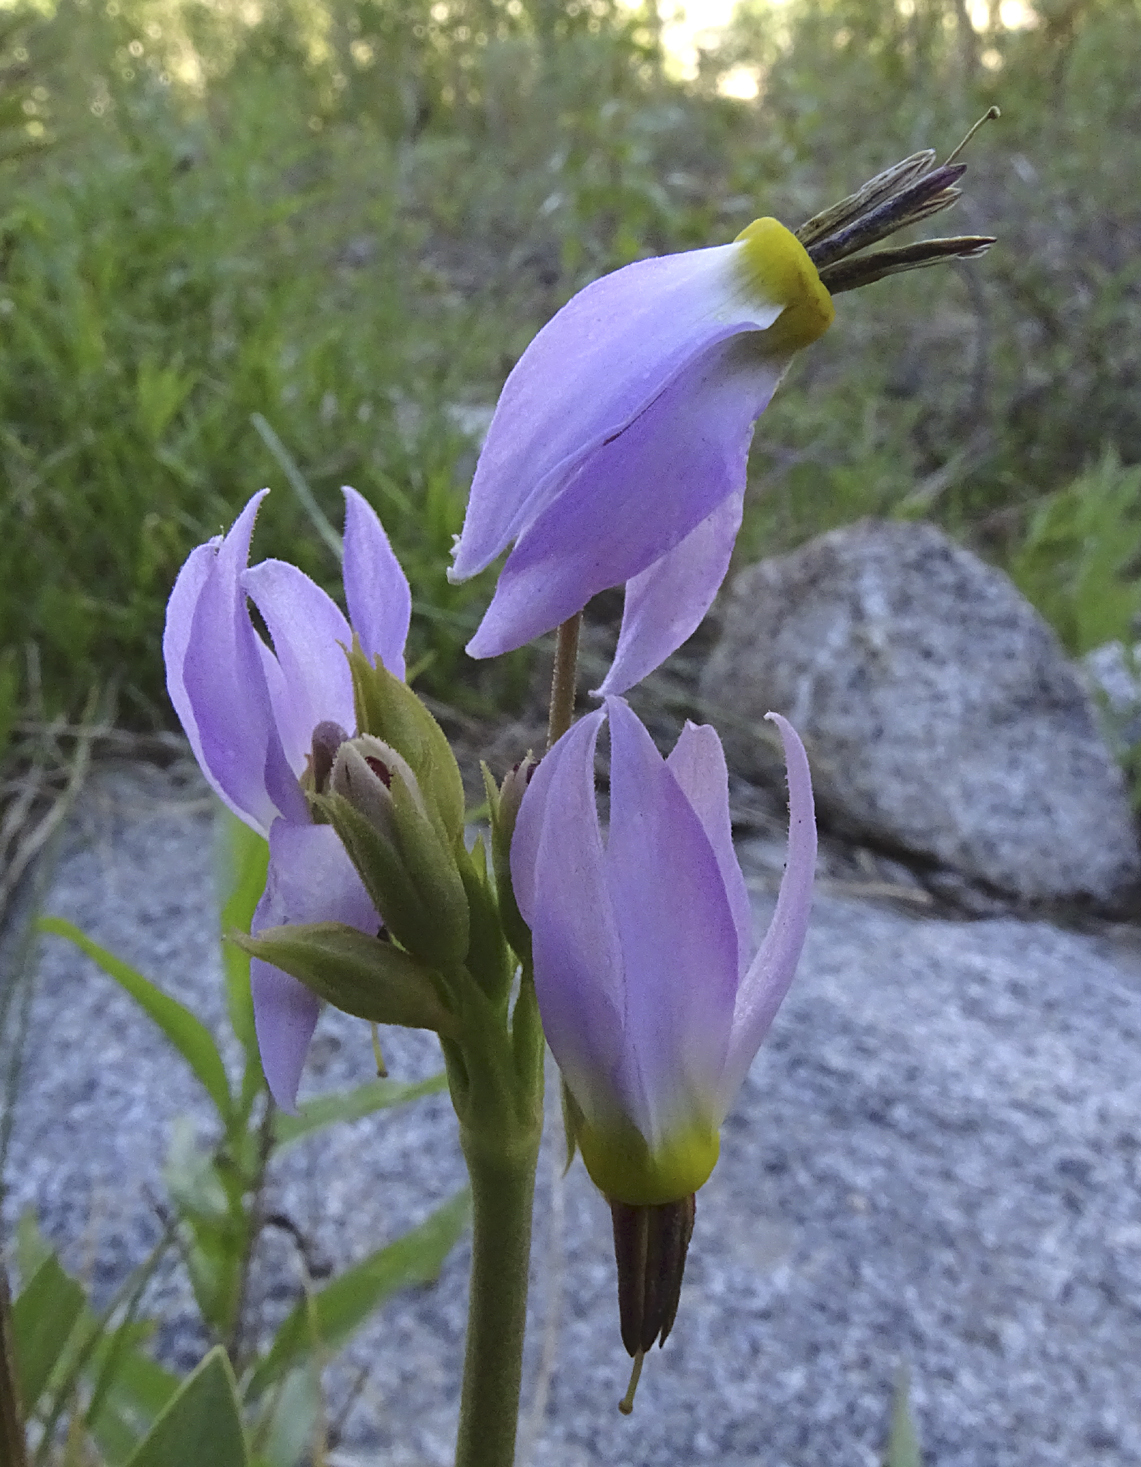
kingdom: Plantae
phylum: Tracheophyta
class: Magnoliopsida
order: Ericales
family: Primulaceae
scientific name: Primulaceae
